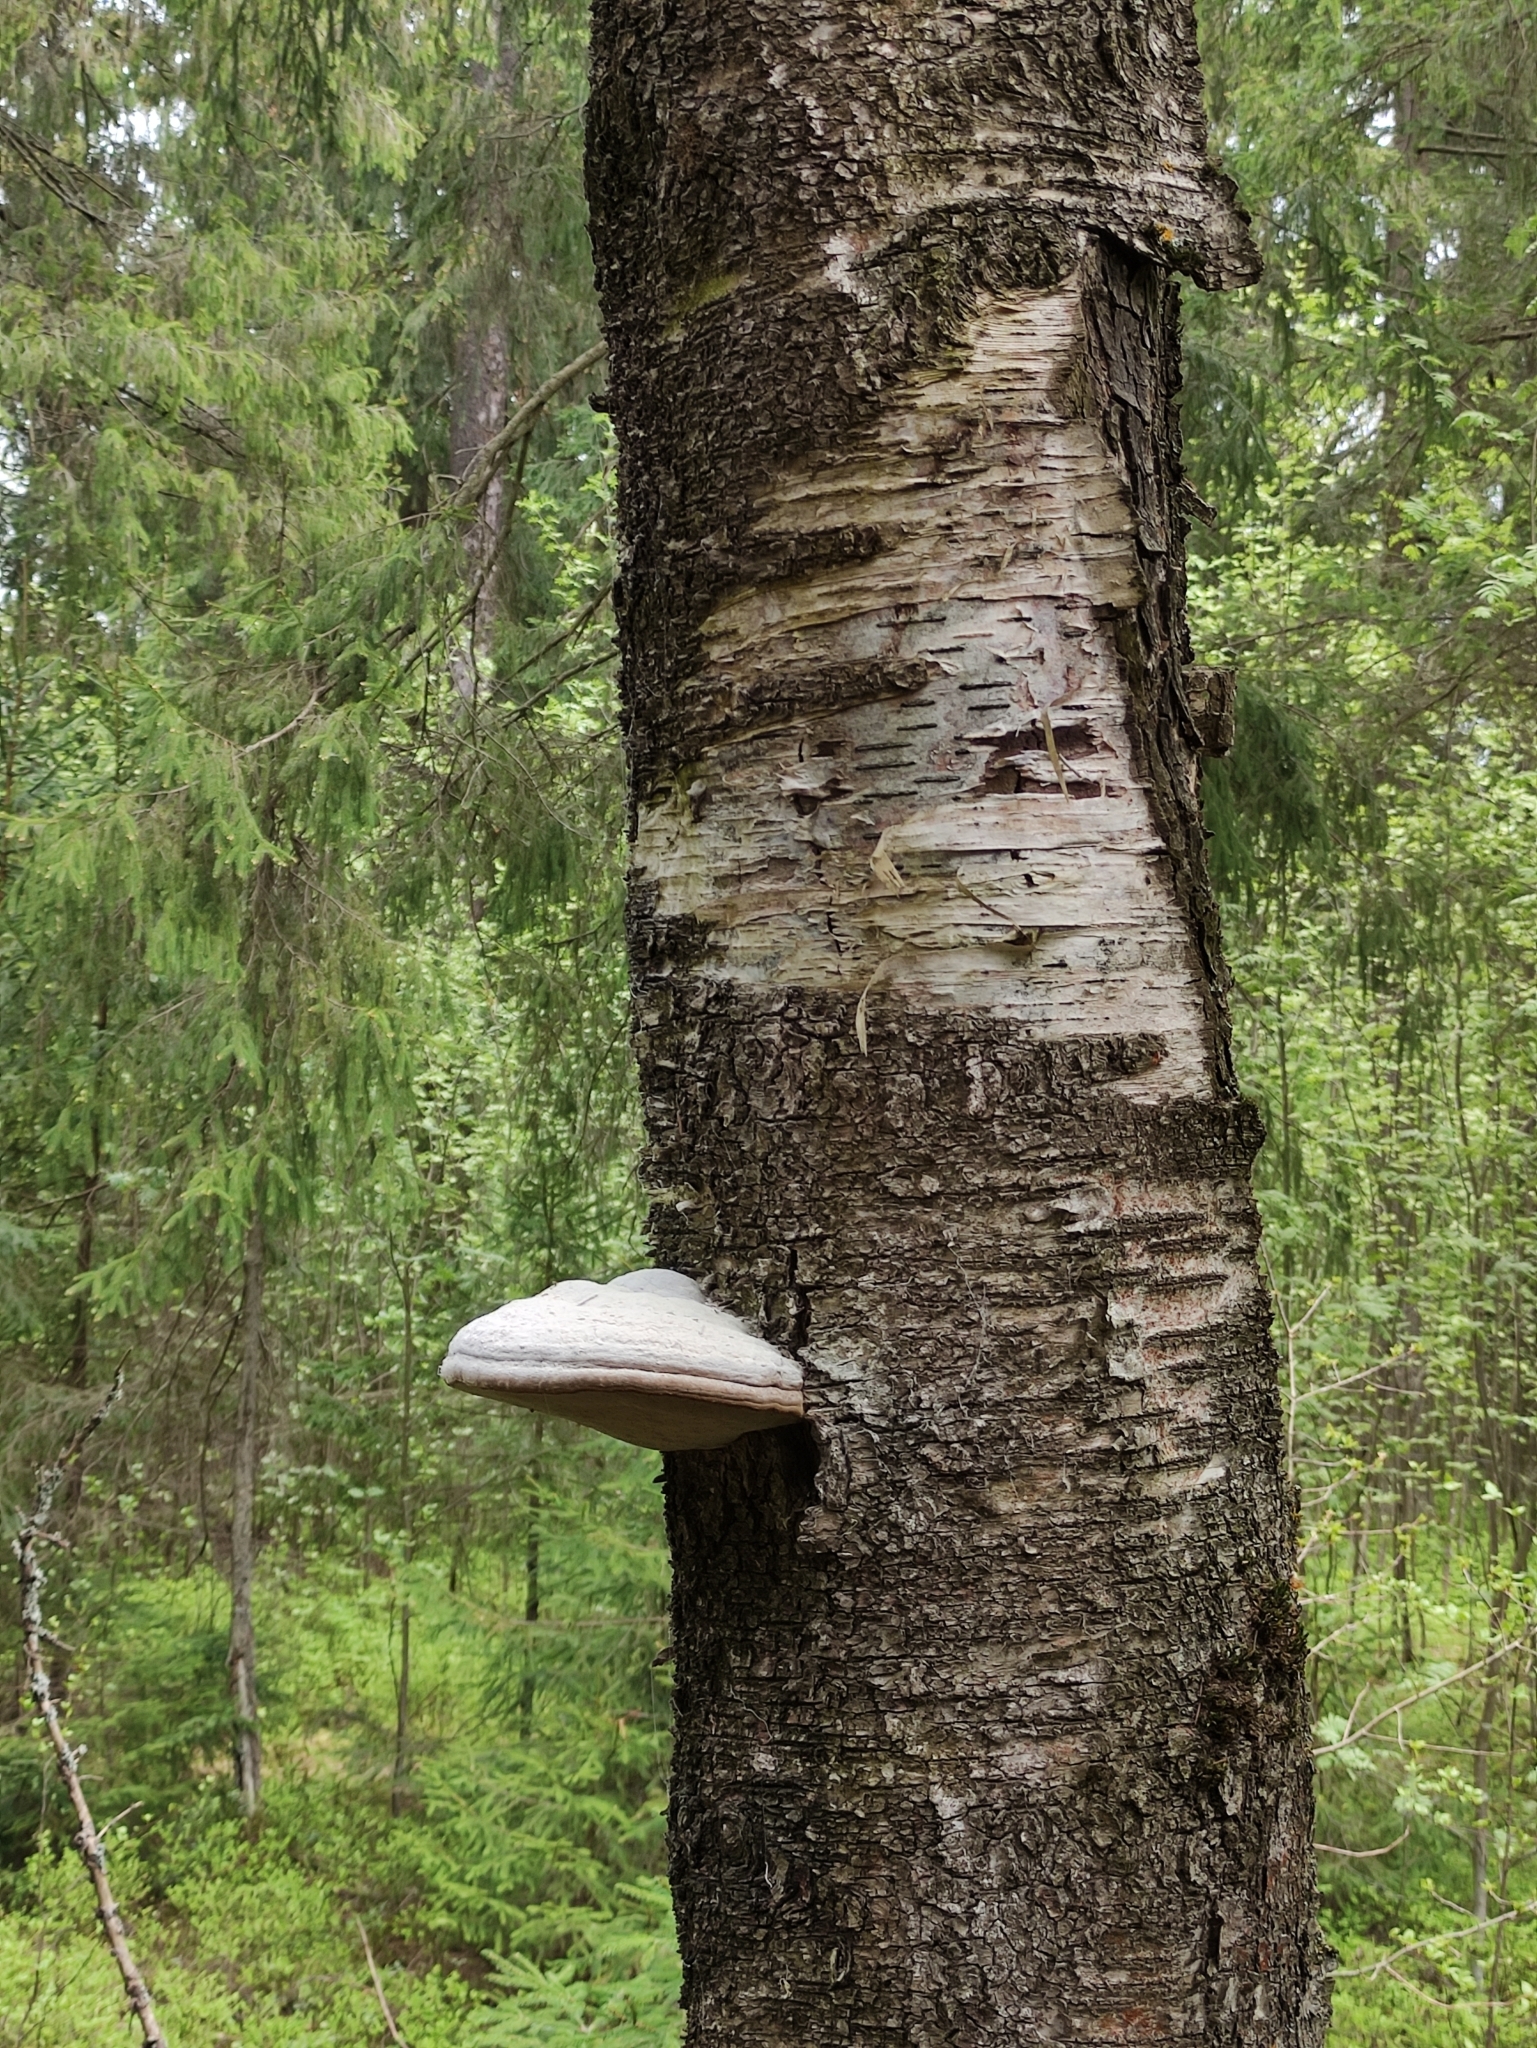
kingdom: Fungi
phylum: Basidiomycota
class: Agaricomycetes
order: Polyporales
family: Polyporaceae
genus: Fomes
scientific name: Fomes fomentarius
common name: Hoof fungus
